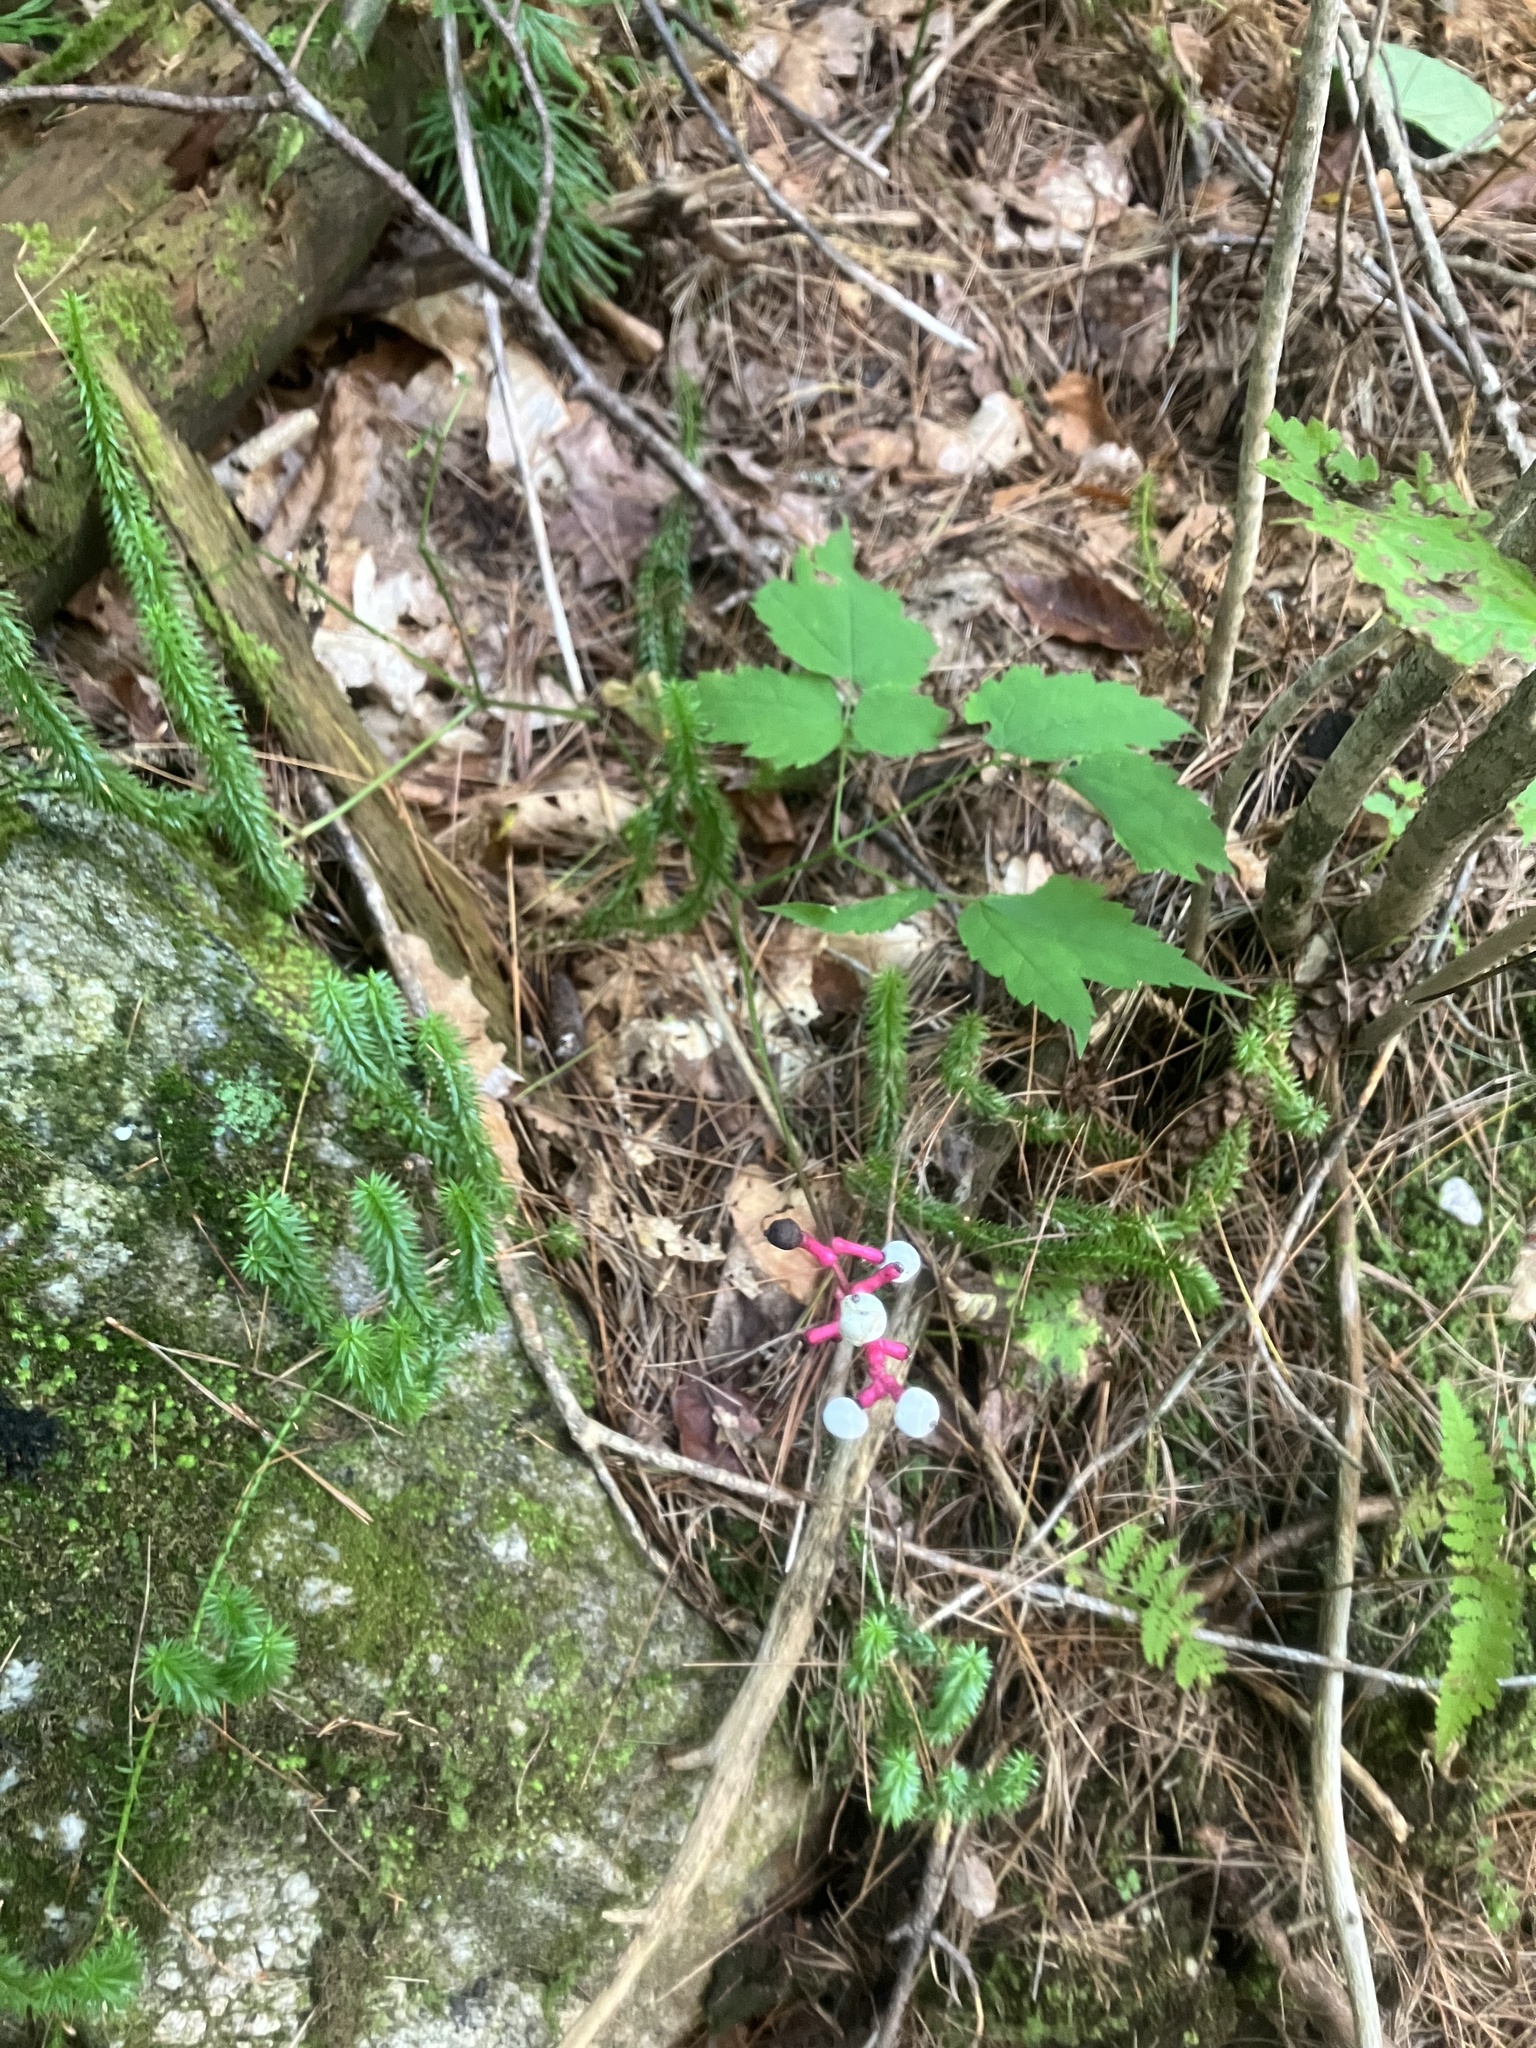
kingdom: Plantae
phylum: Tracheophyta
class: Magnoliopsida
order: Ranunculales
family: Ranunculaceae
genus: Actaea
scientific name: Actaea pachypoda
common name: Doll's-eyes
